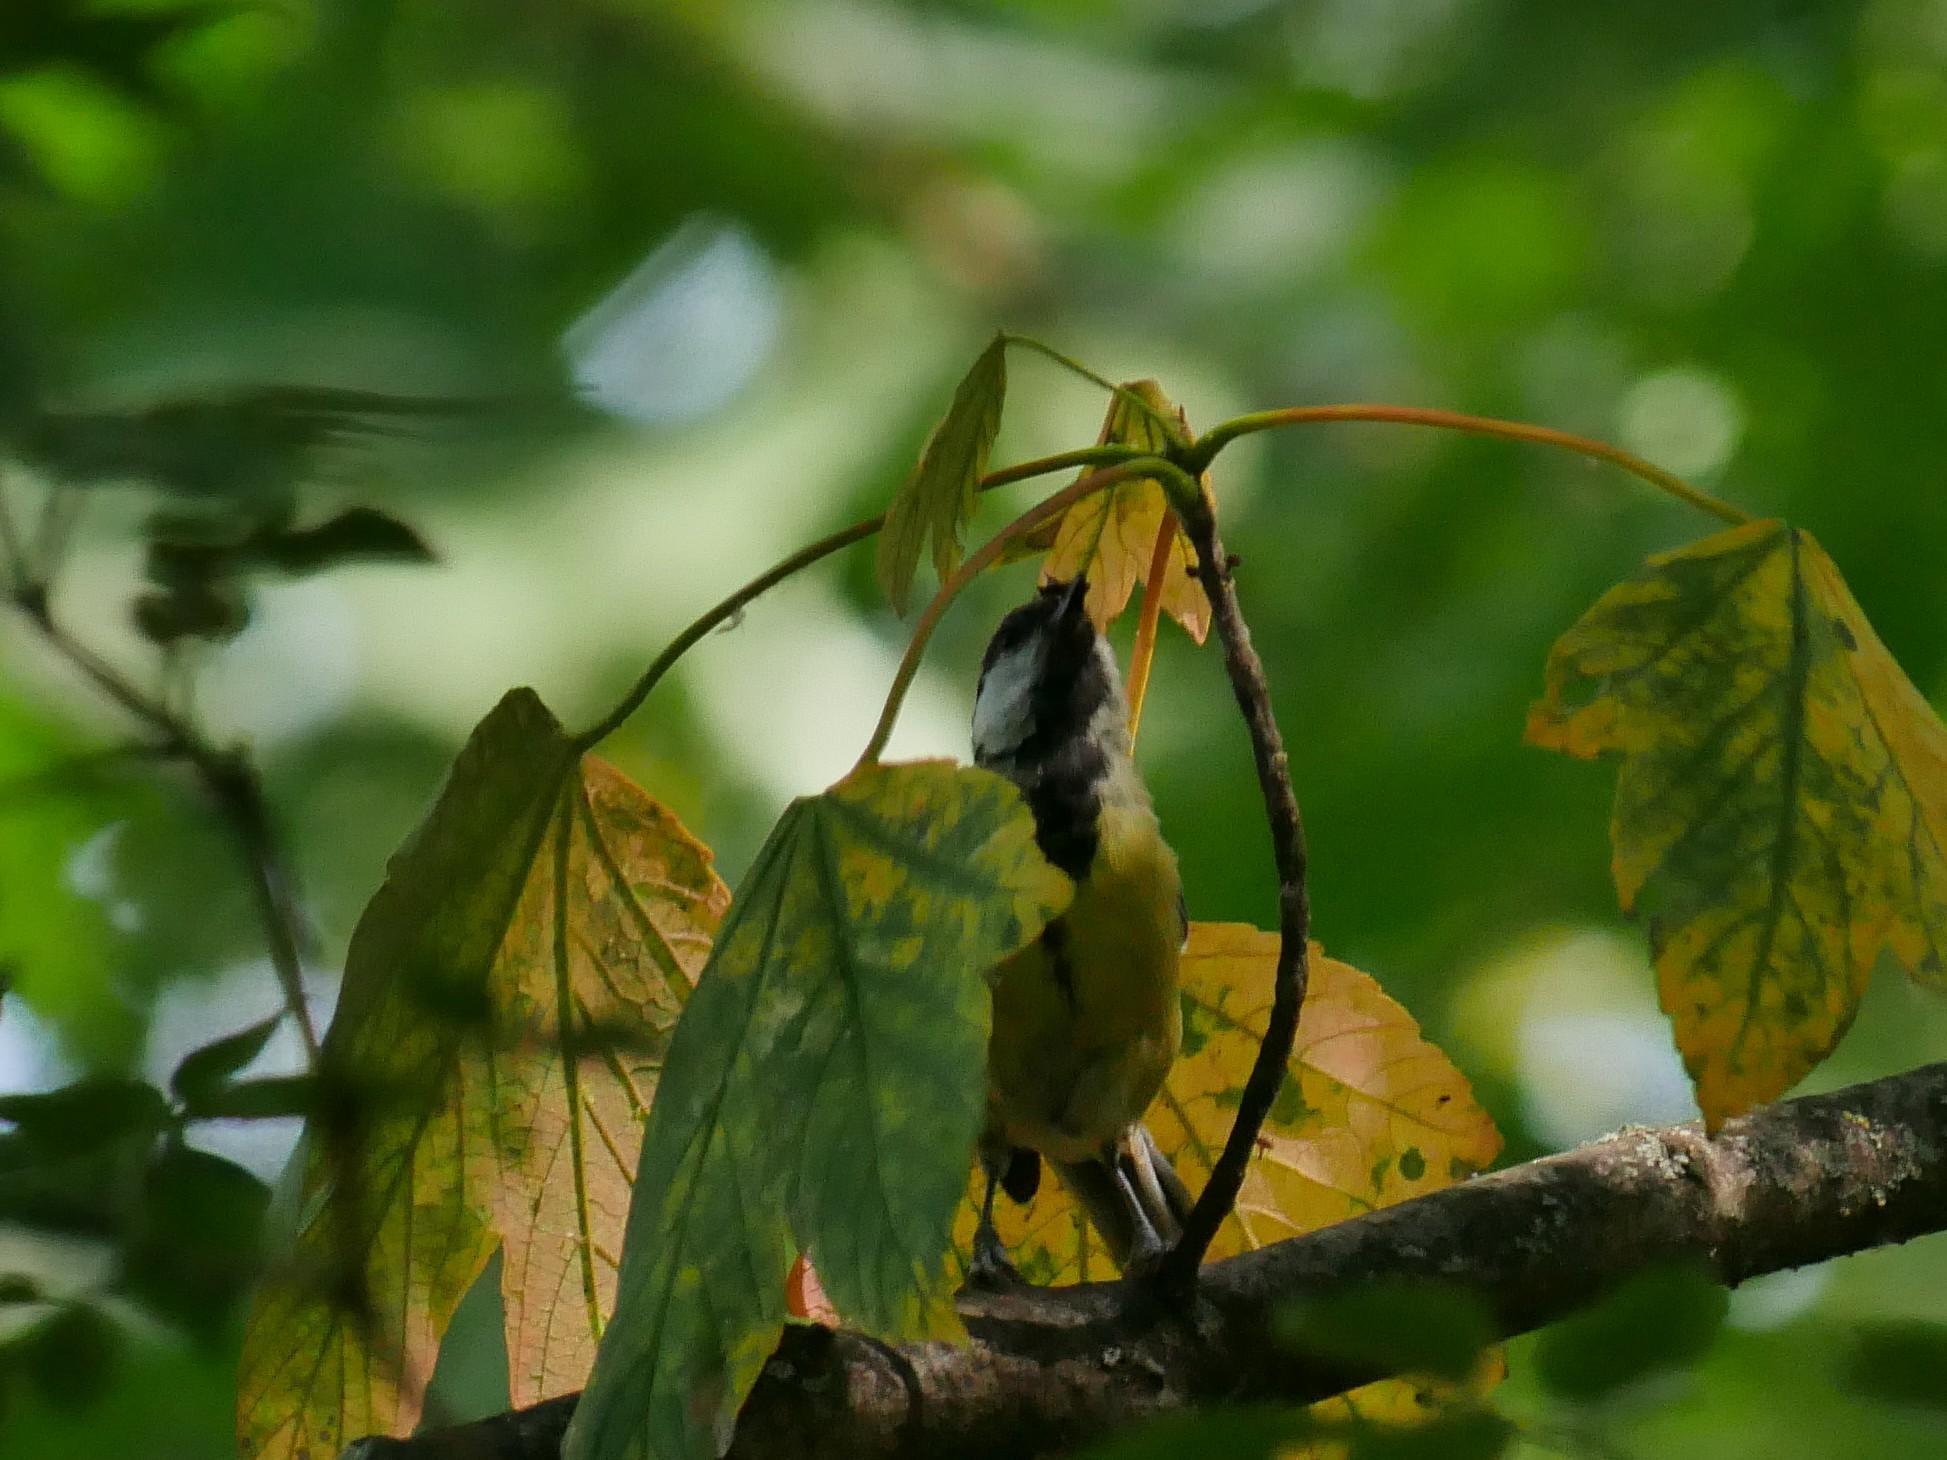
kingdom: Animalia
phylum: Chordata
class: Aves
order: Passeriformes
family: Paridae
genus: Parus
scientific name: Parus major
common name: Great tit
